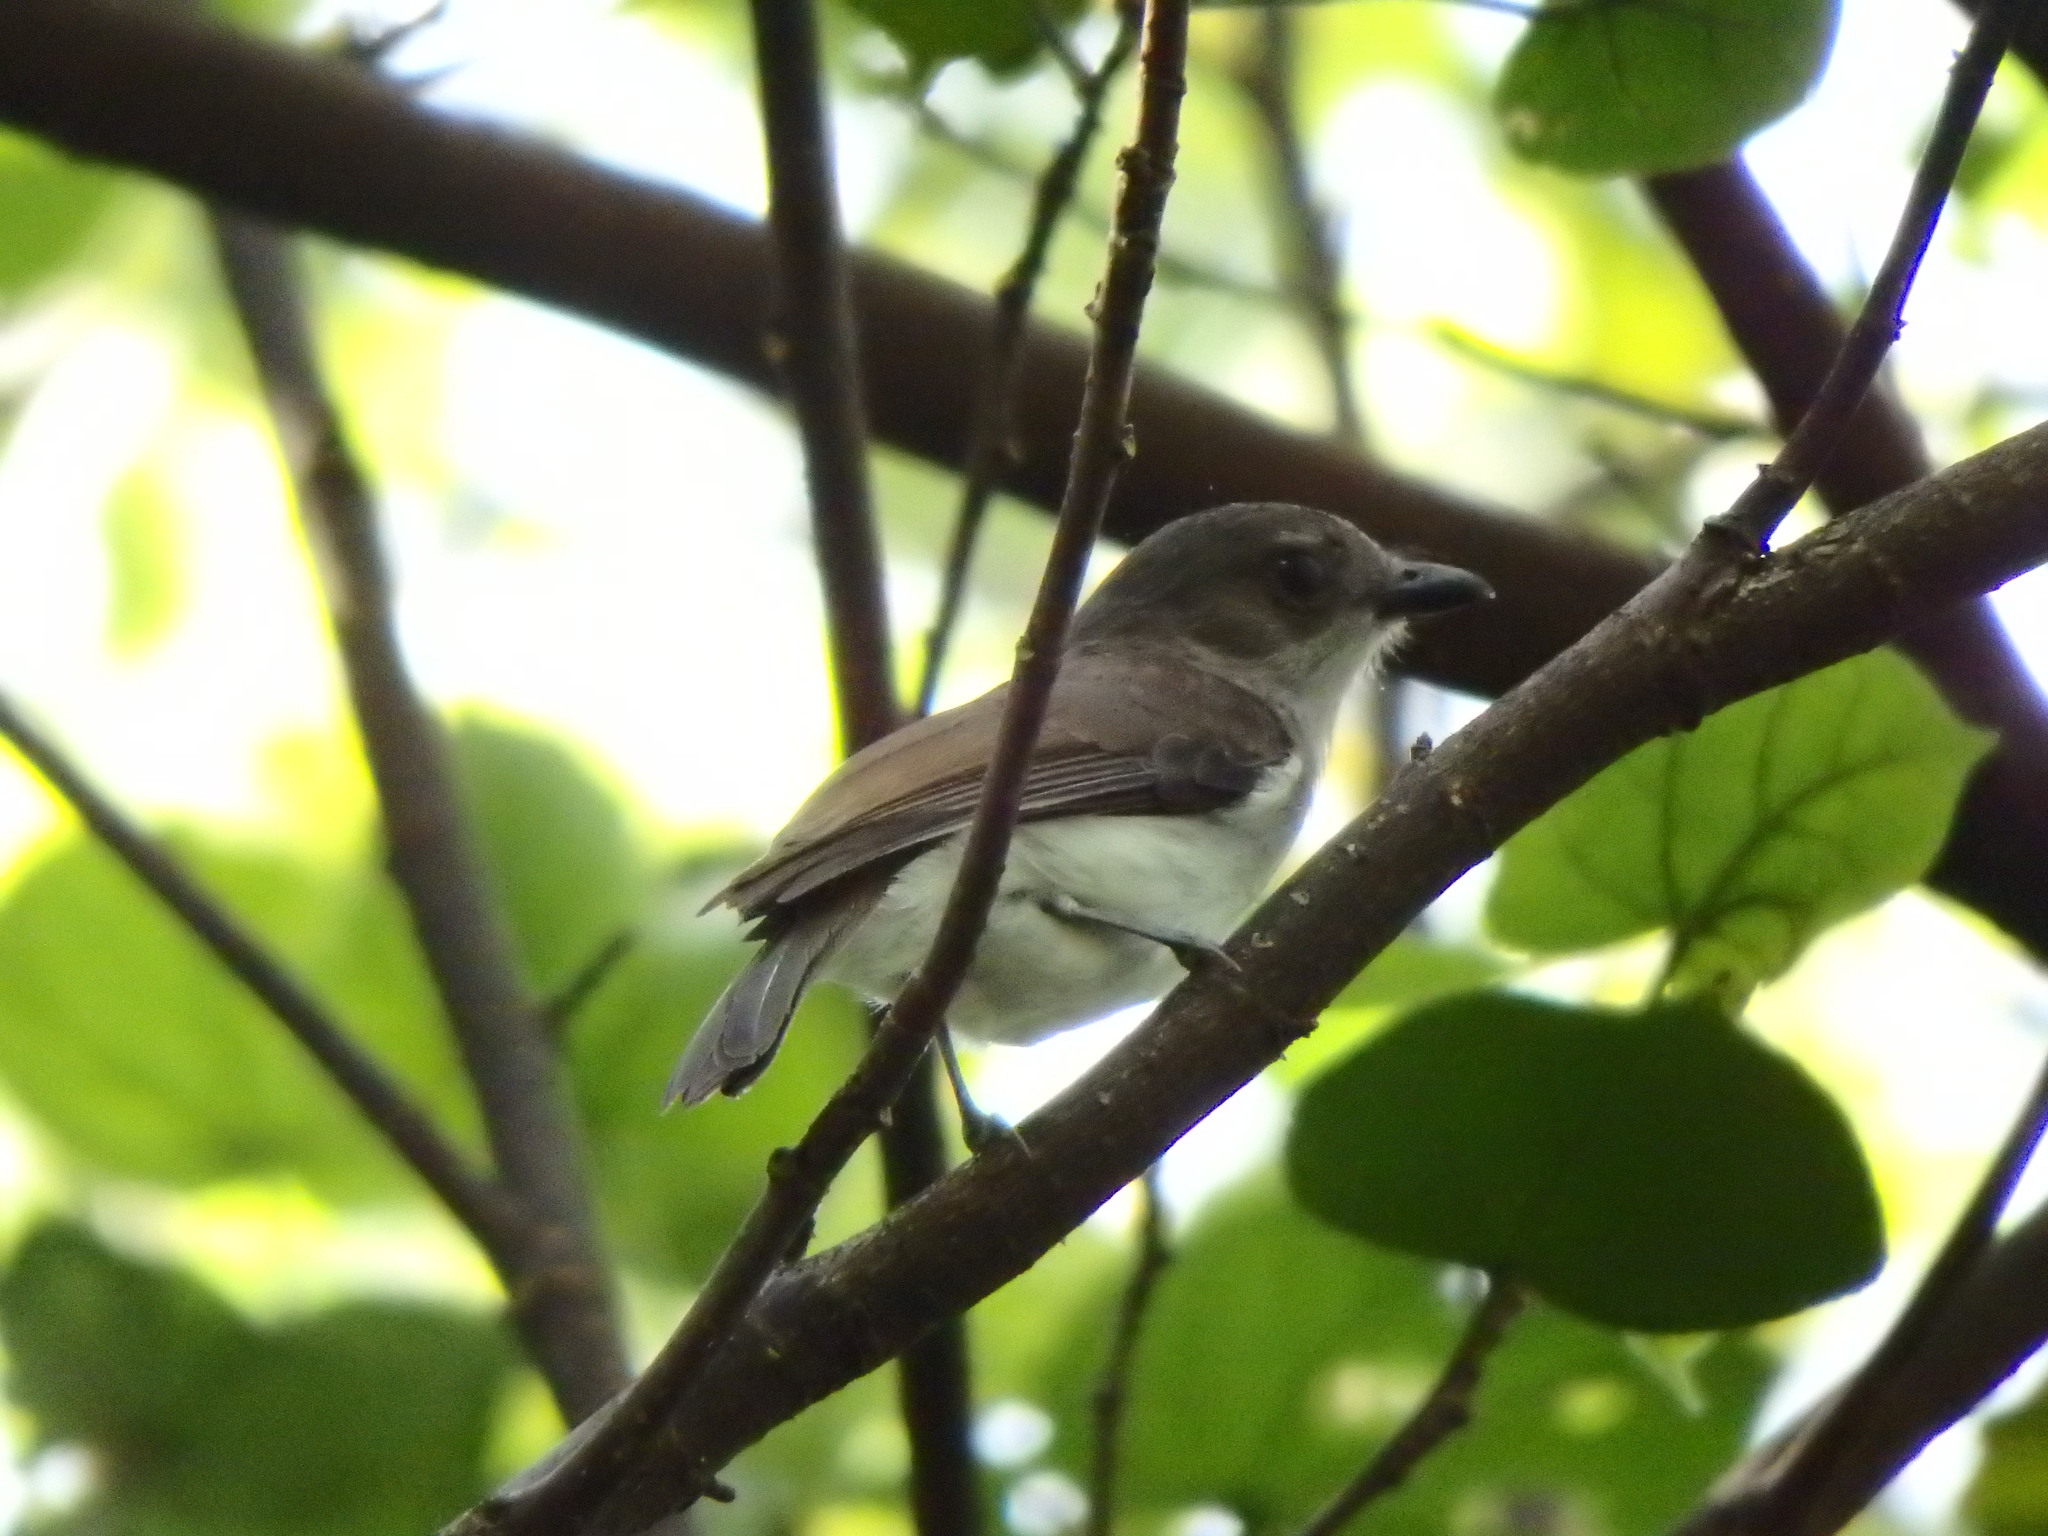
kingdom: Animalia
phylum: Chordata
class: Aves
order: Passeriformes
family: Pachycephalidae
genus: Pachycephala
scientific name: Pachycephala cinerea
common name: Mangrove whistler
